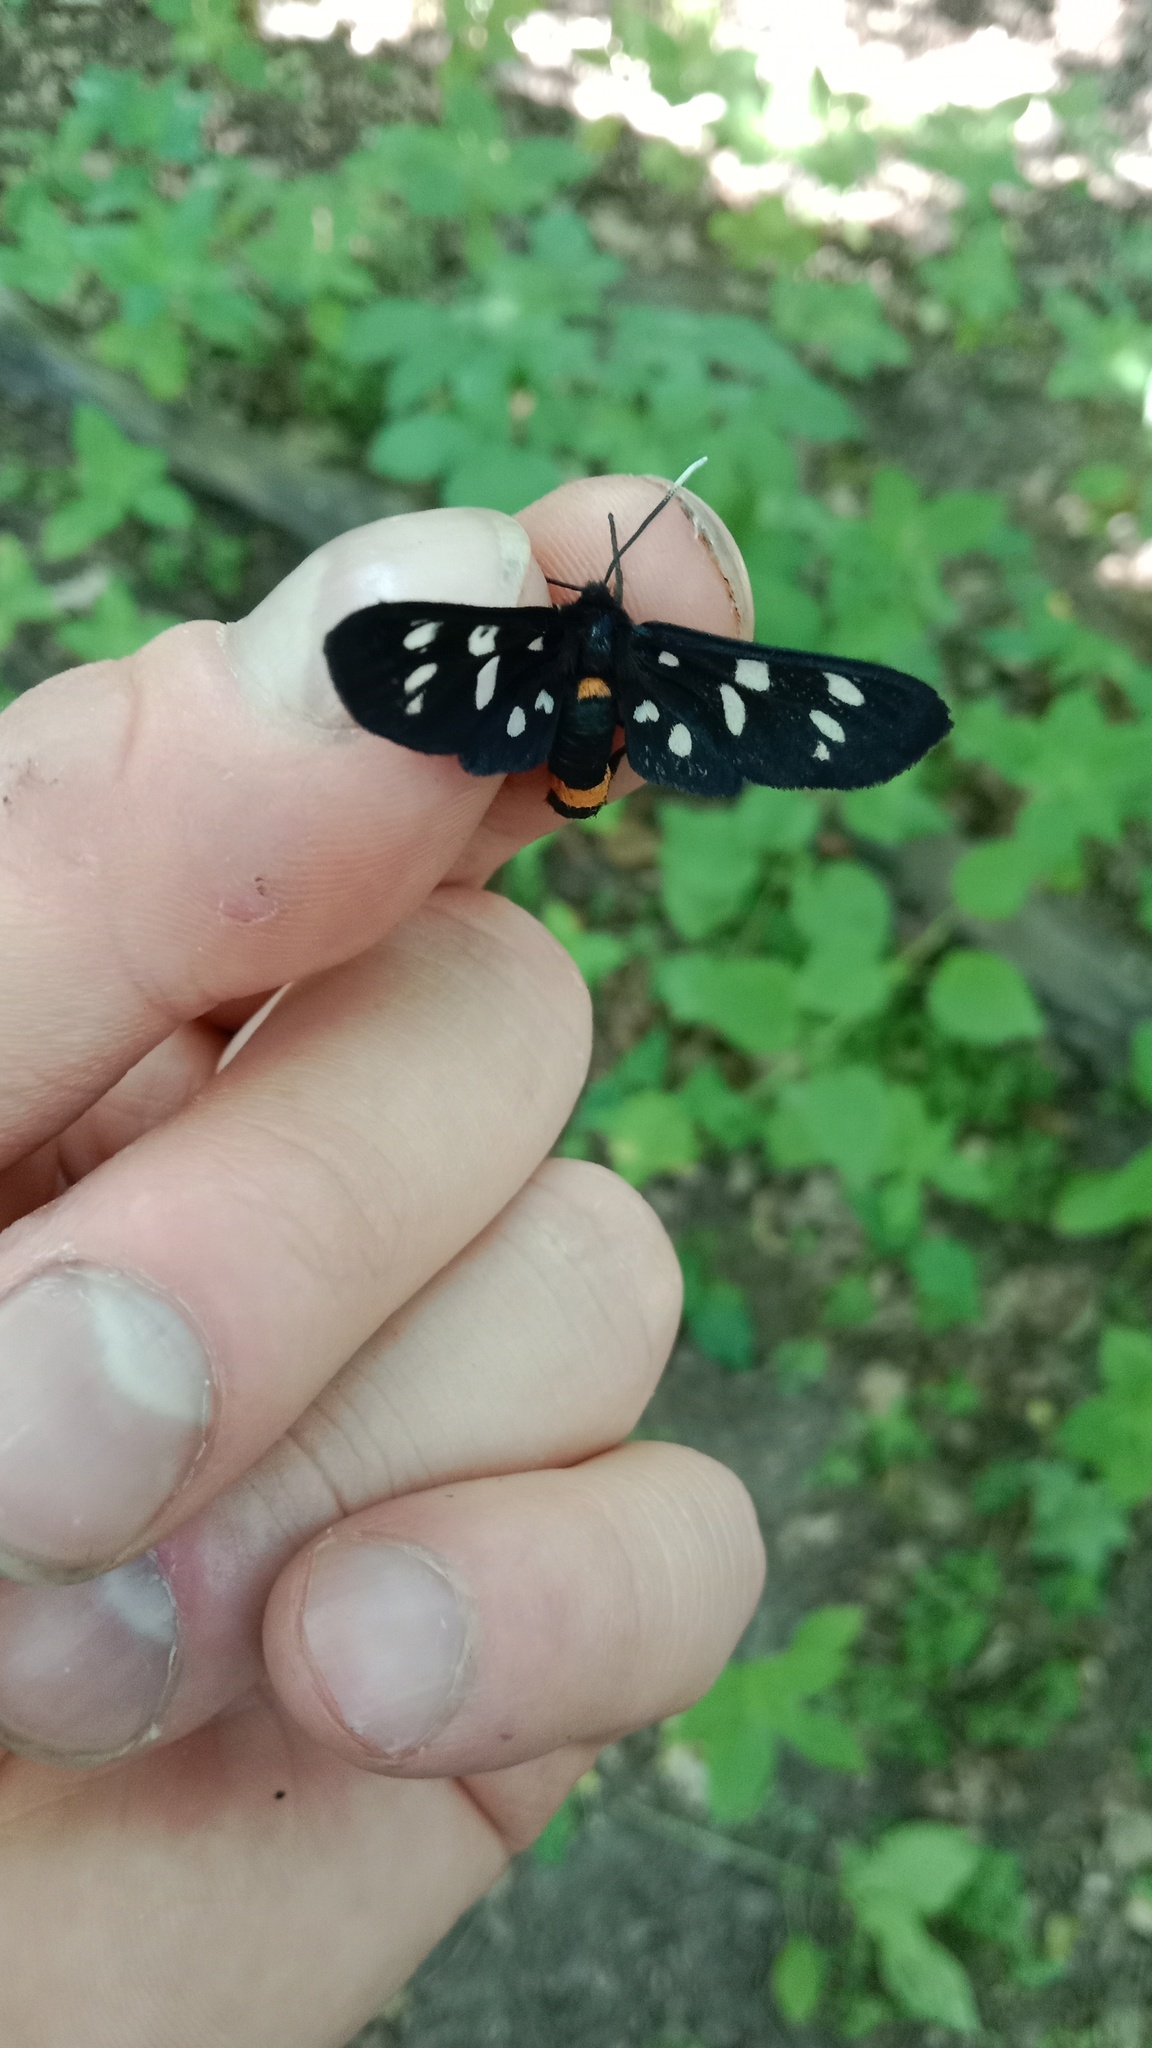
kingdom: Animalia
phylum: Arthropoda
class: Insecta
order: Lepidoptera
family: Erebidae
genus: Amata
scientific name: Amata phegea
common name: Nine-spotted
